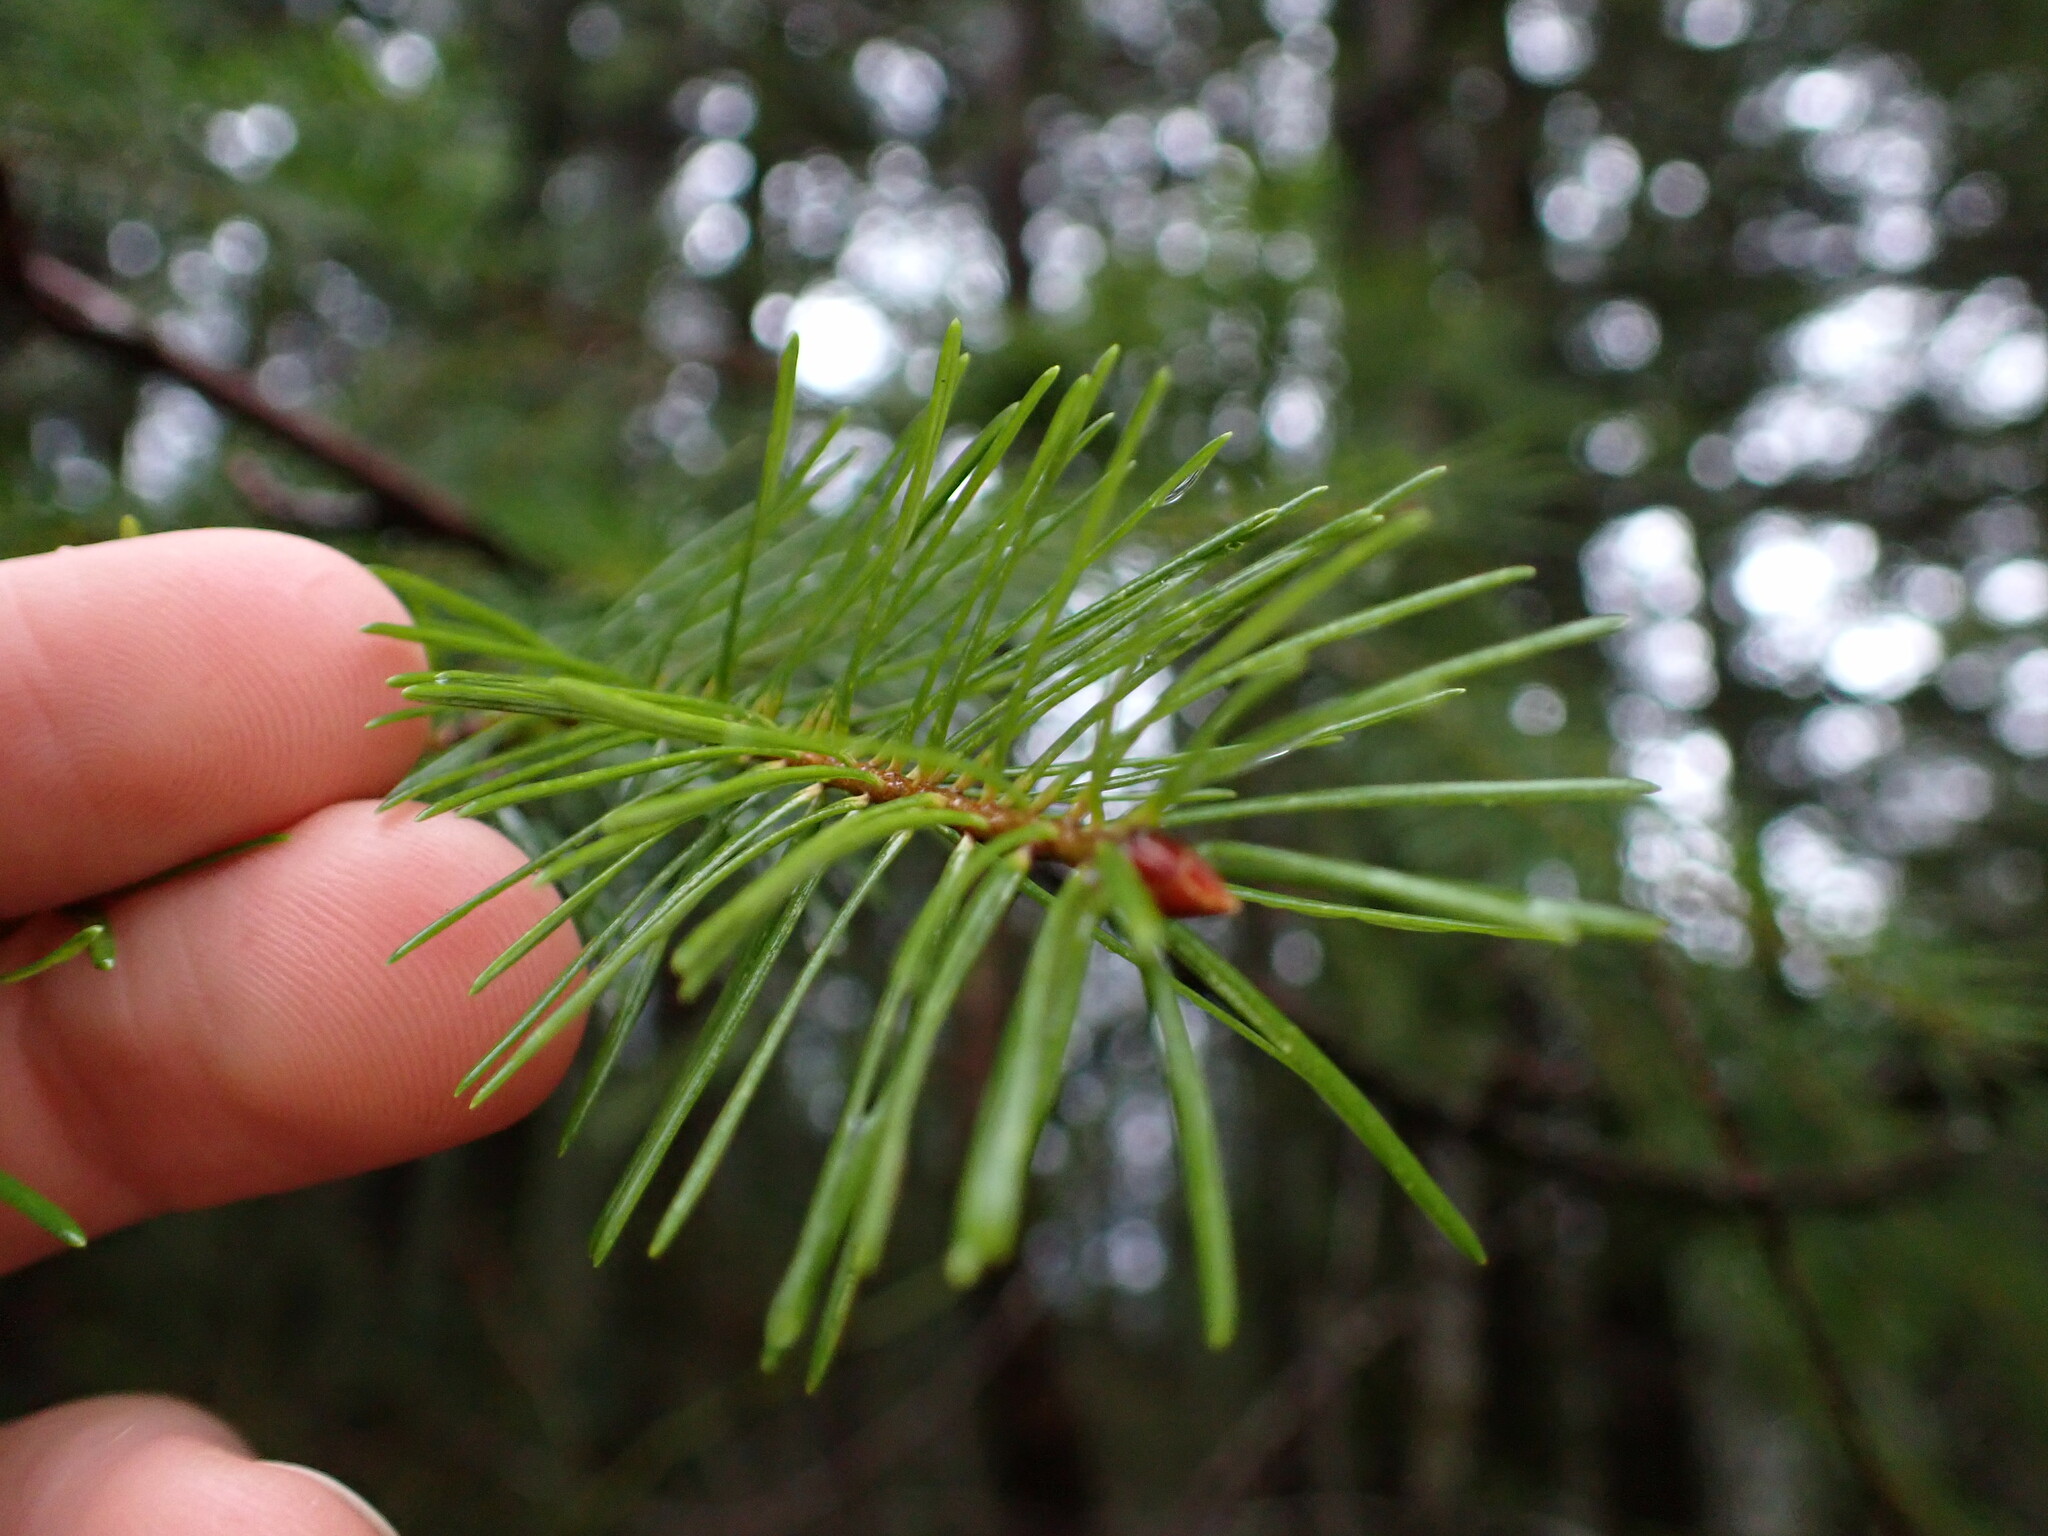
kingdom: Plantae
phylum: Tracheophyta
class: Pinopsida
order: Pinales
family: Pinaceae
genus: Pseudotsuga
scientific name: Pseudotsuga menziesii
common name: Douglas fir
